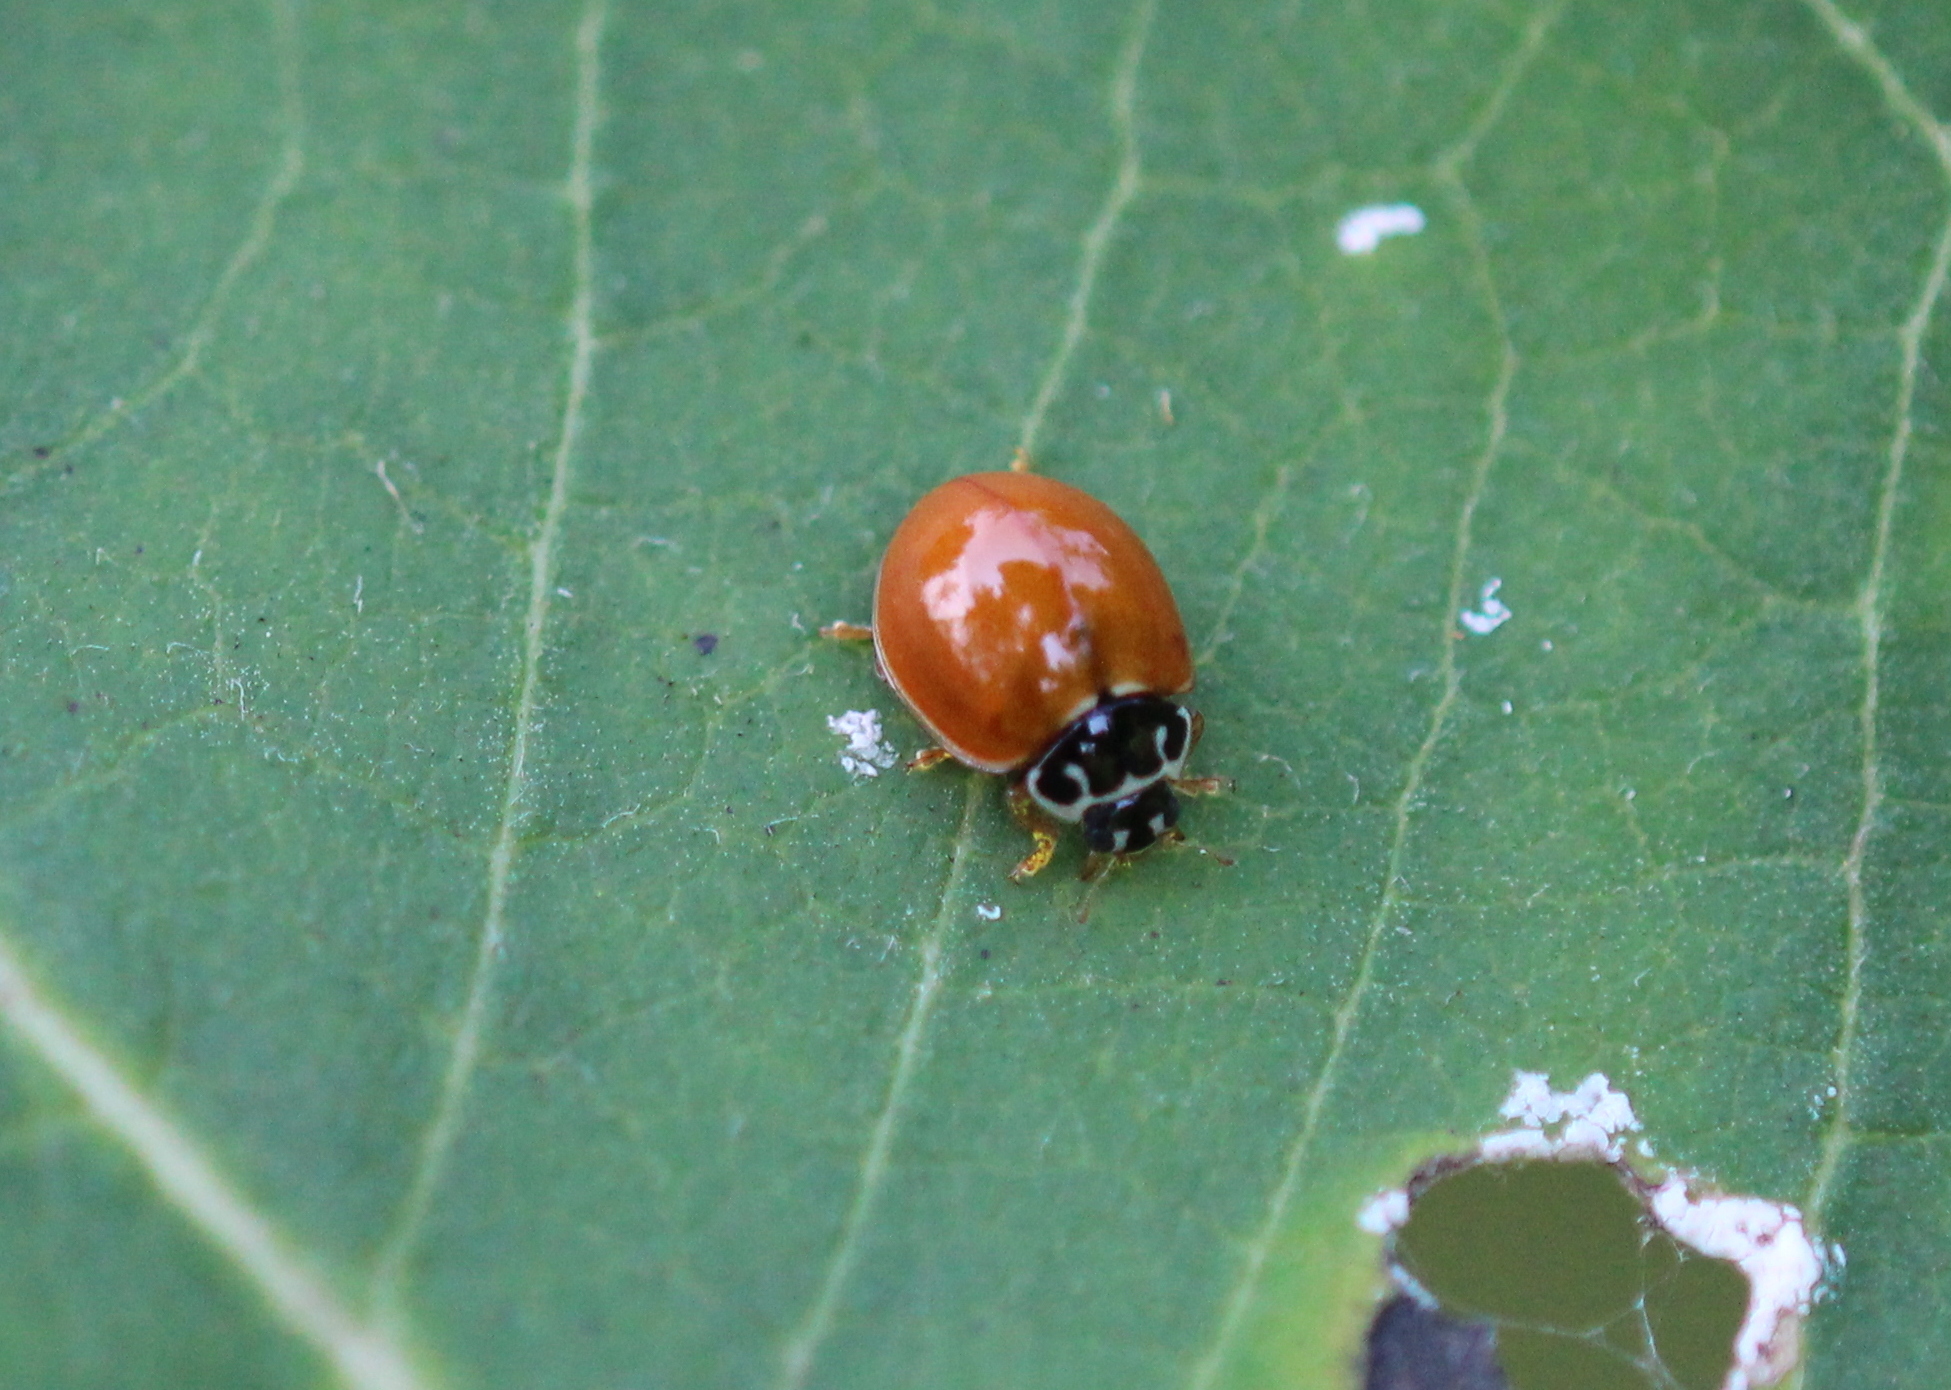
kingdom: Animalia
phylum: Arthropoda
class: Insecta
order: Coleoptera
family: Coccinellidae
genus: Cycloneda
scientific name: Cycloneda munda
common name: Polished lady beetle
